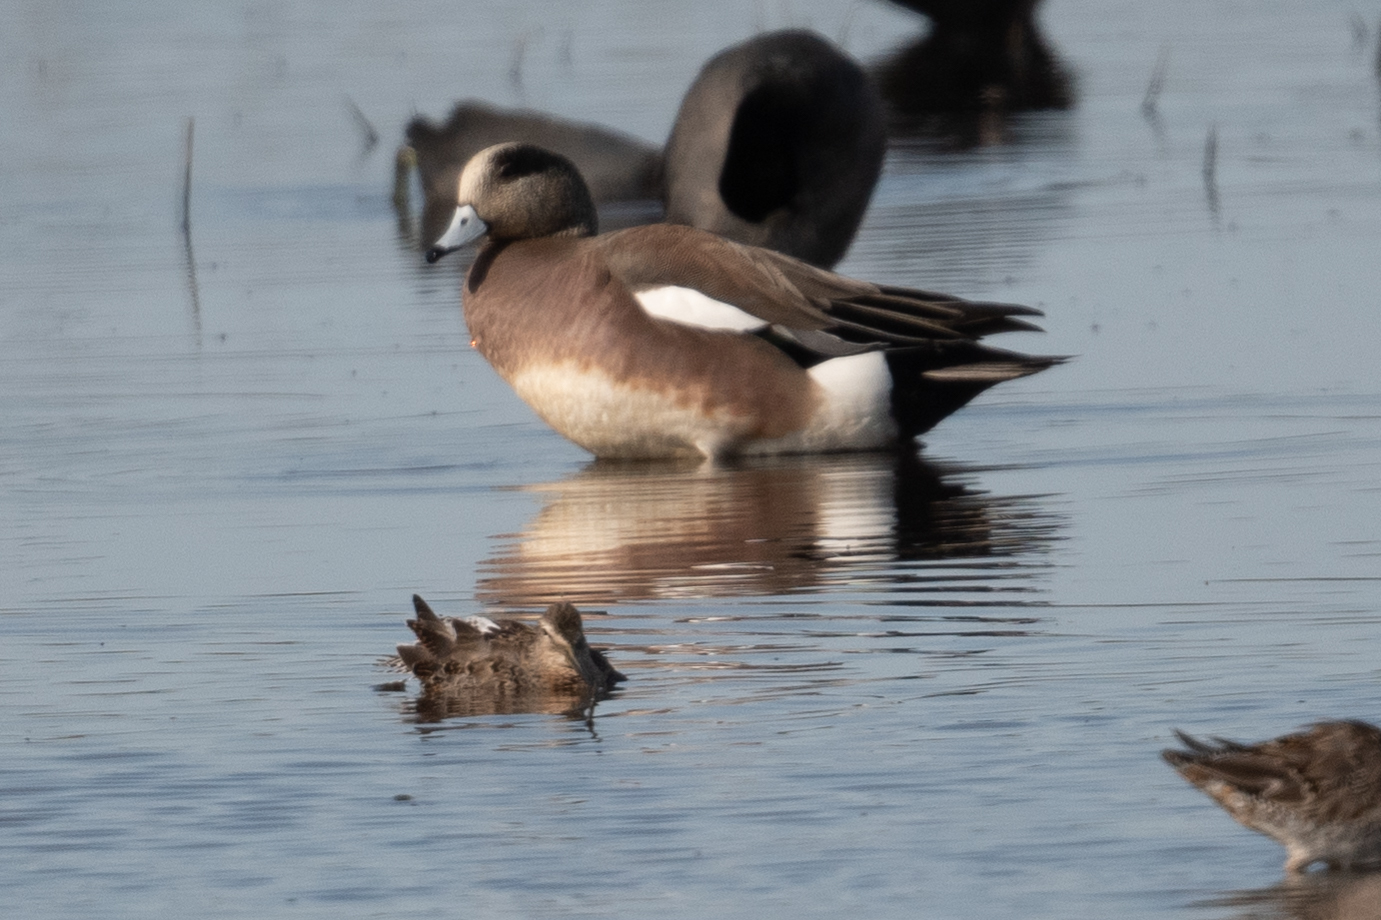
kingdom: Animalia
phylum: Chordata
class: Aves
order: Anseriformes
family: Anatidae
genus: Mareca
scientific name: Mareca americana
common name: American wigeon
